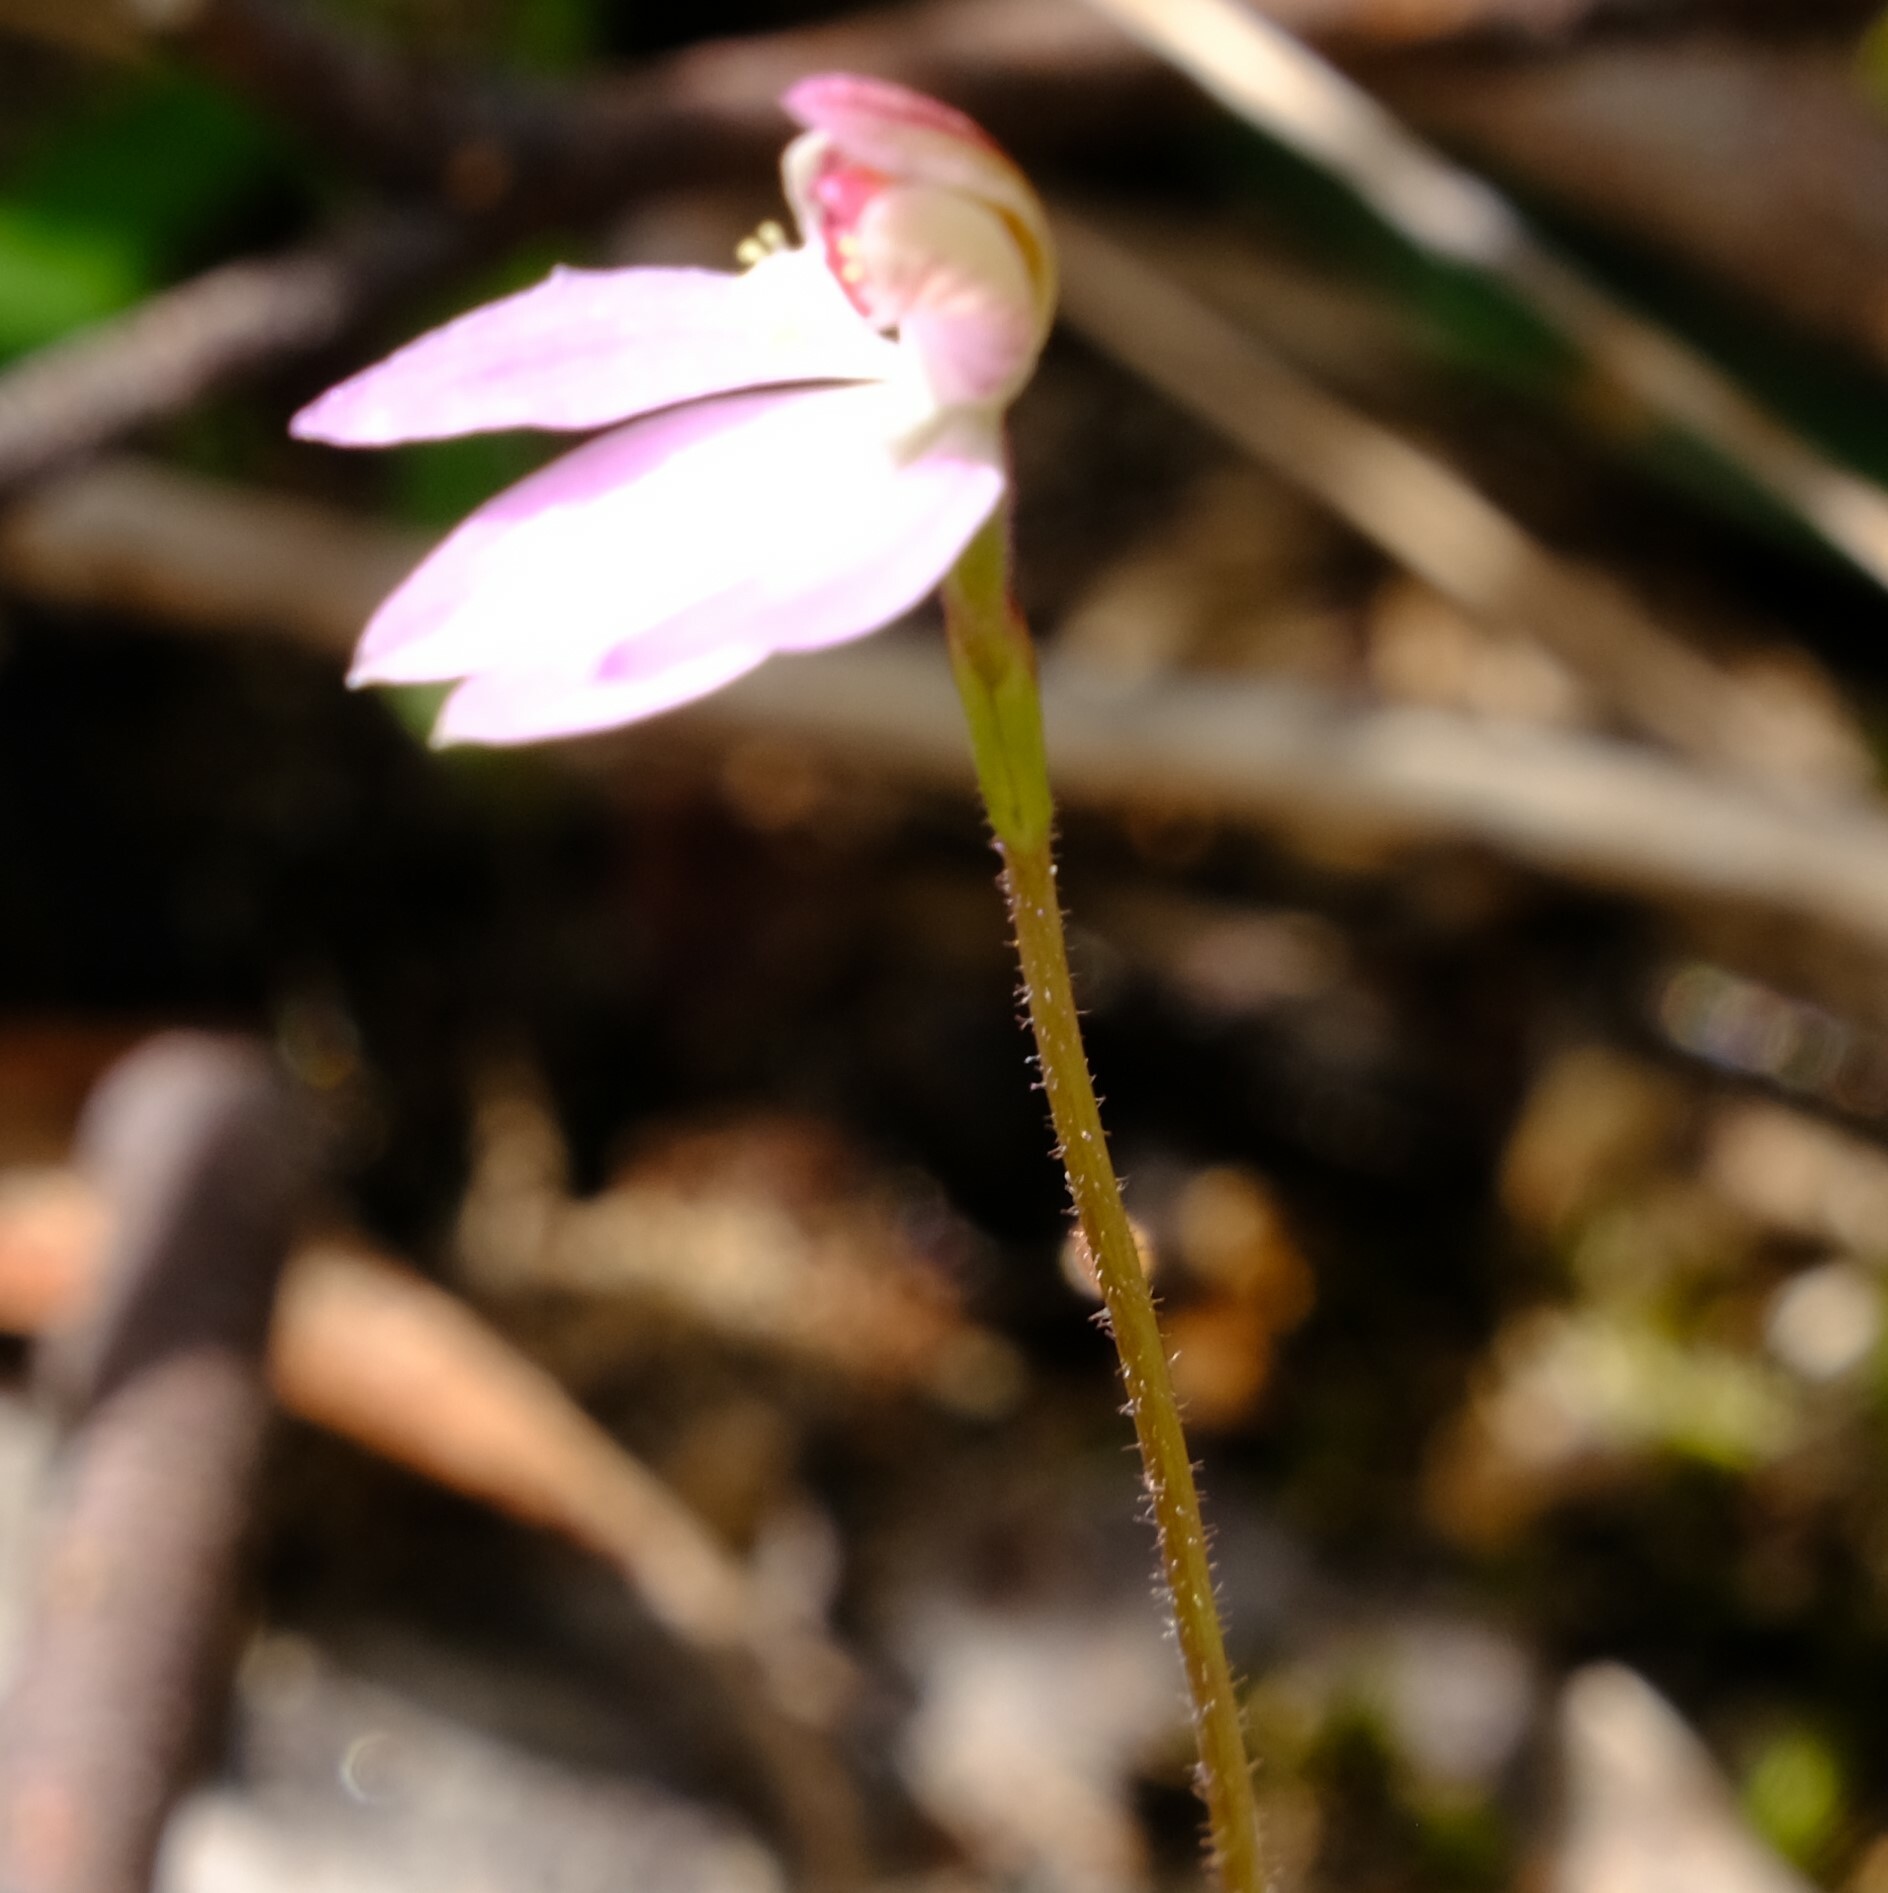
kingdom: Plantae
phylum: Tracheophyta
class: Liliopsida
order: Asparagales
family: Orchidaceae
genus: Caladenia
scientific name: Caladenia carnea
